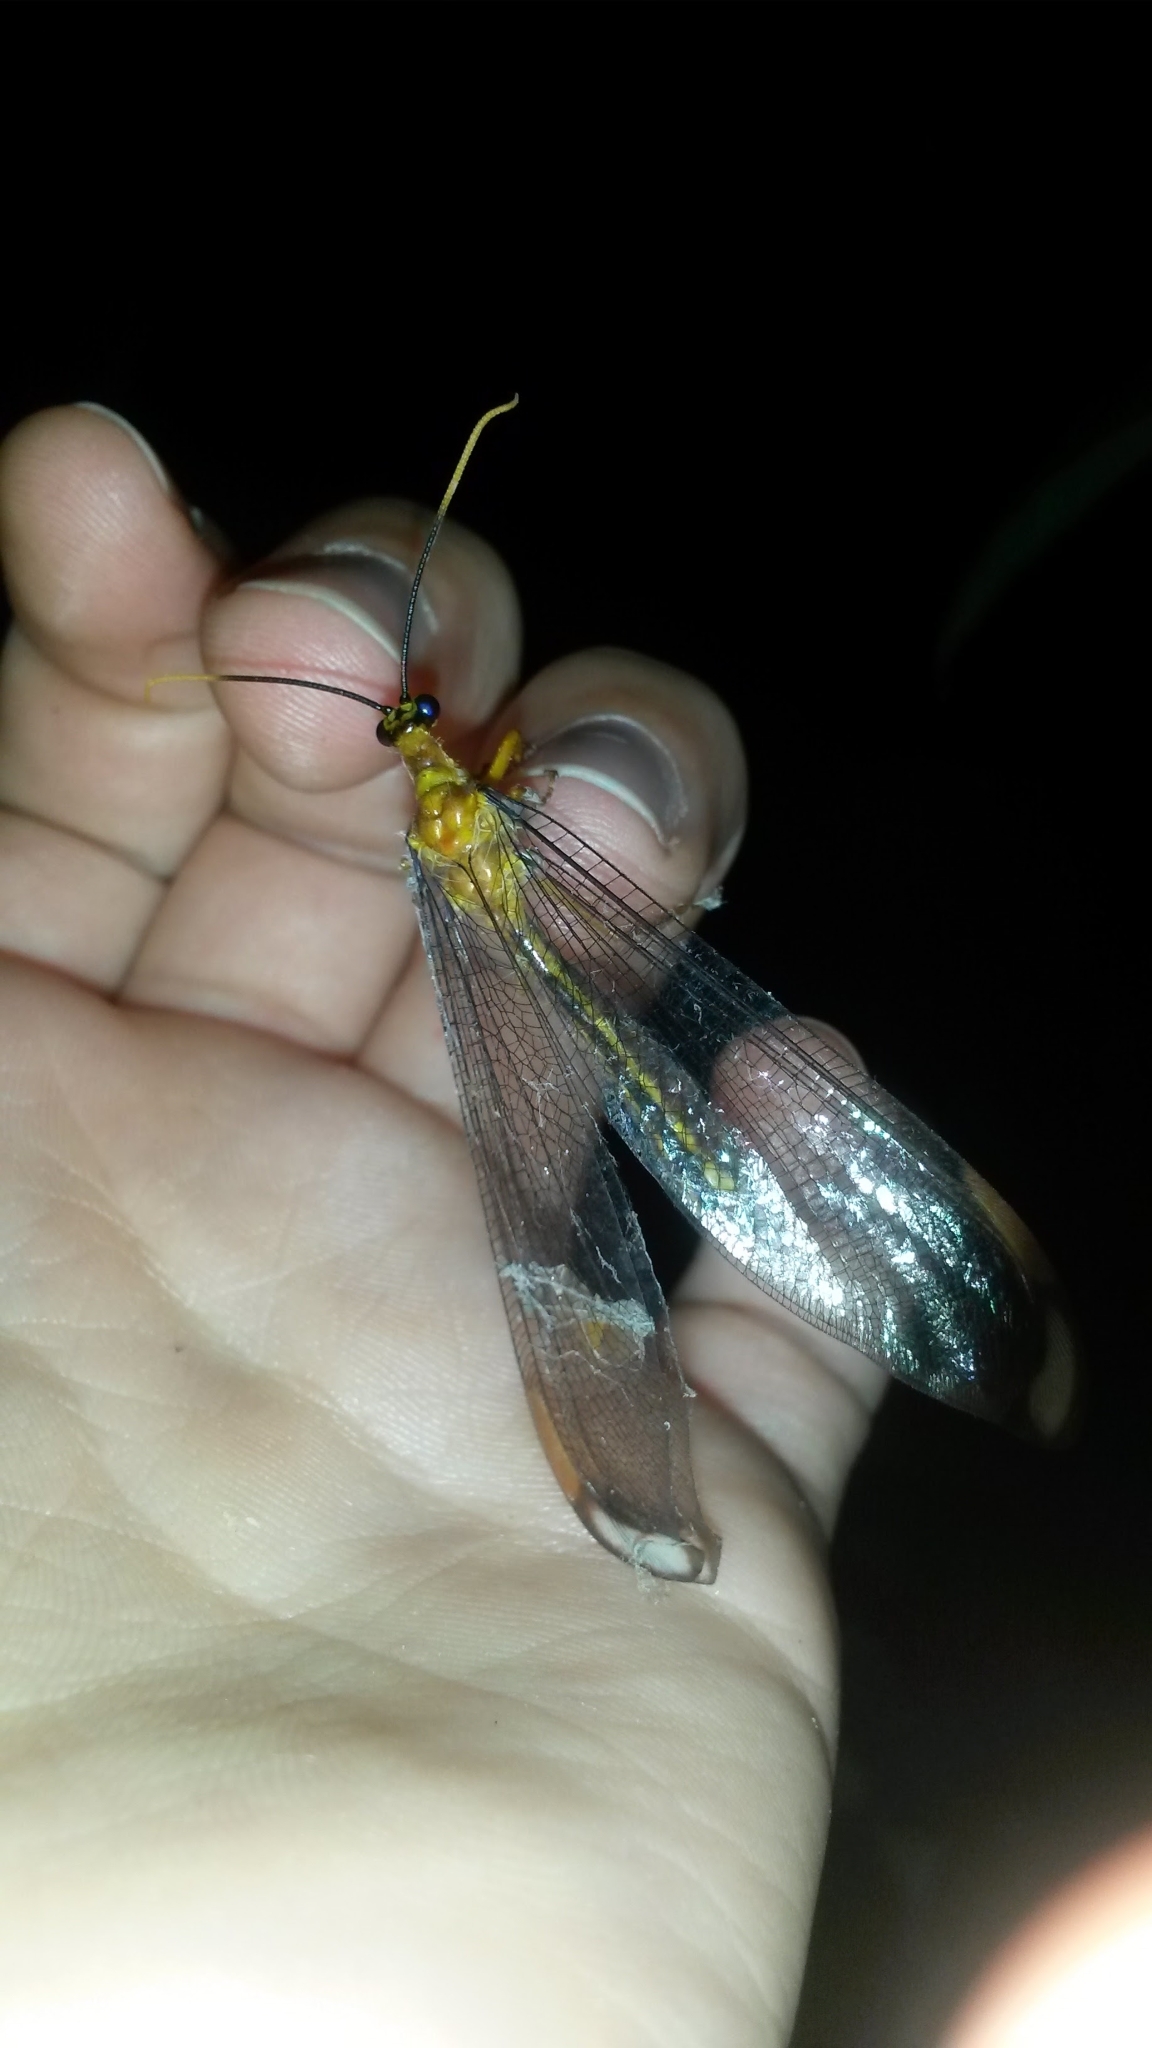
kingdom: Animalia
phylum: Arthropoda
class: Insecta
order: Neuroptera
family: Nymphidae
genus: Nymphes
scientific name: Nymphes myrmeleonoides
